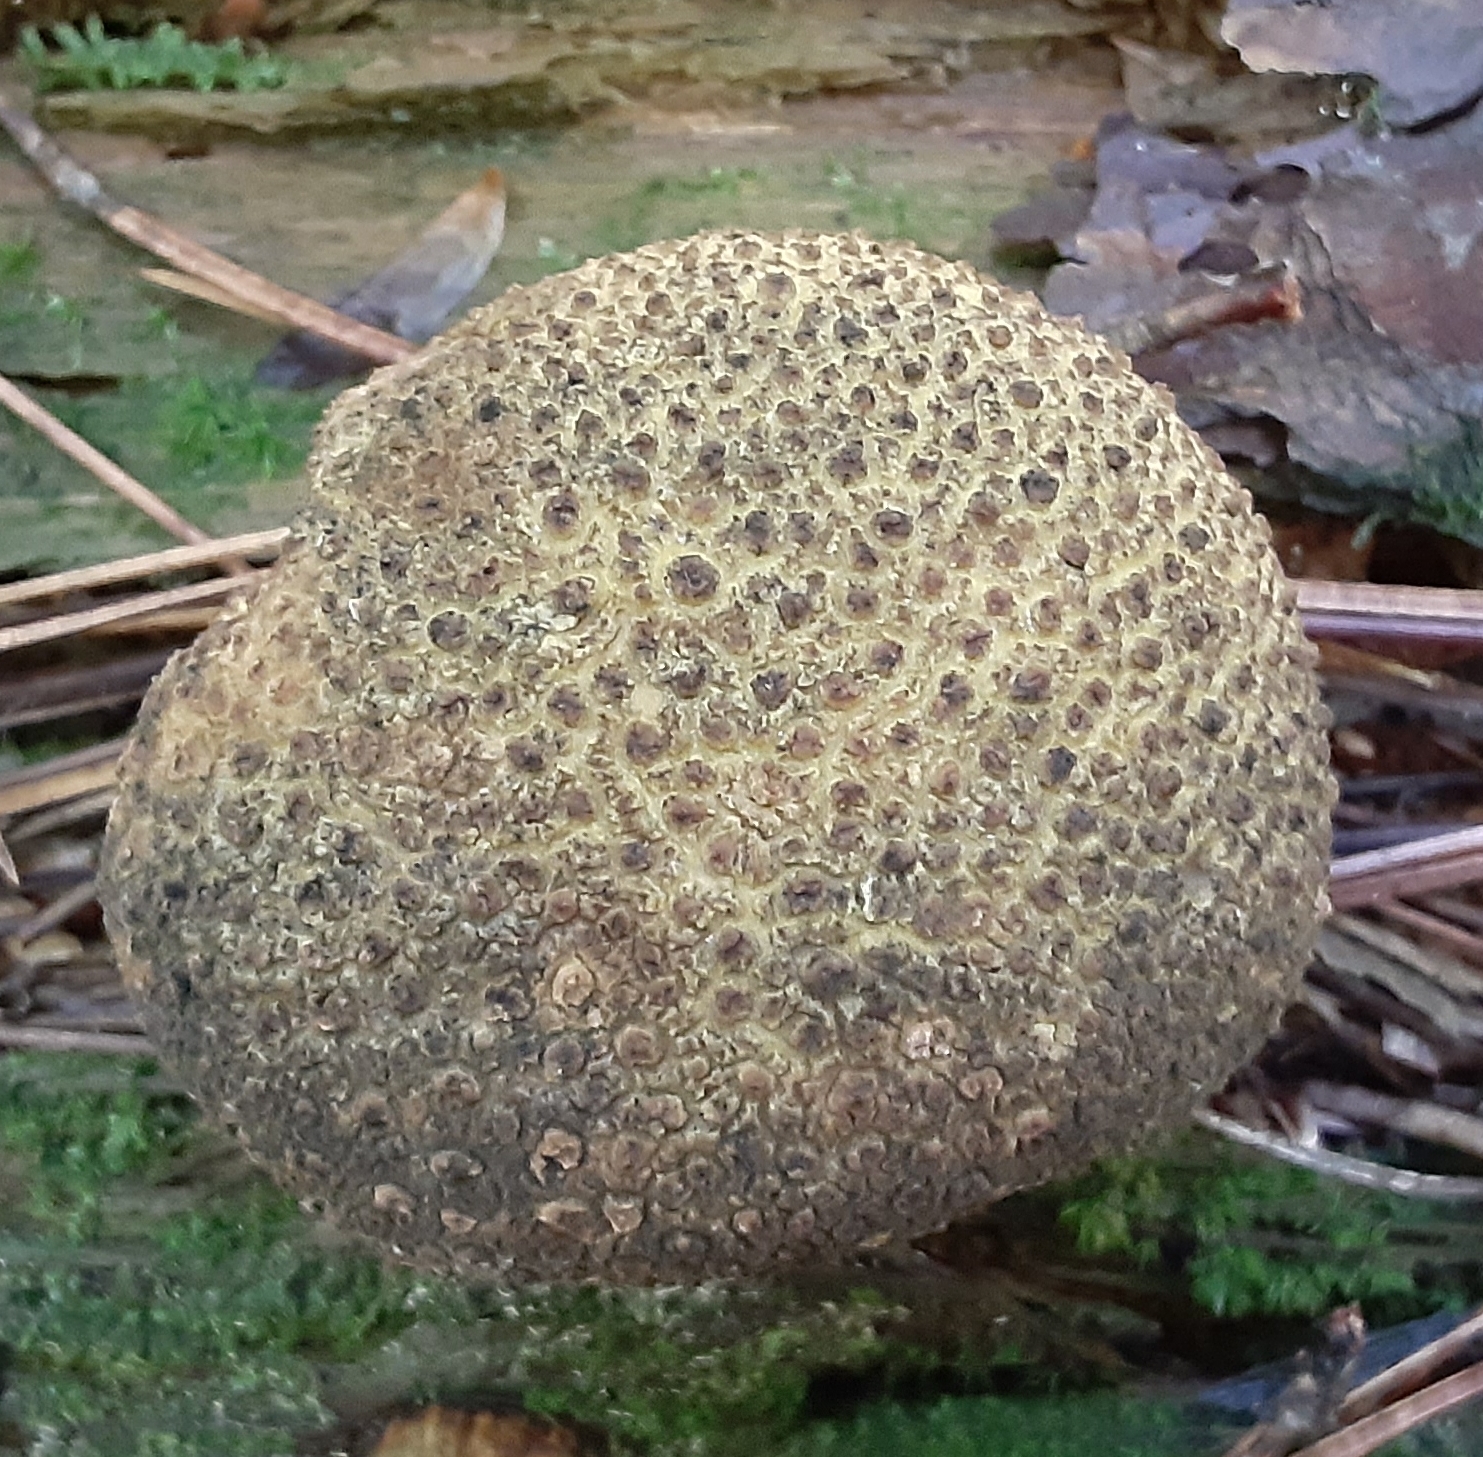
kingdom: Fungi
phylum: Basidiomycota
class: Agaricomycetes
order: Boletales
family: Sclerodermataceae
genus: Scleroderma
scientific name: Scleroderma citrinum
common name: Common earthball
